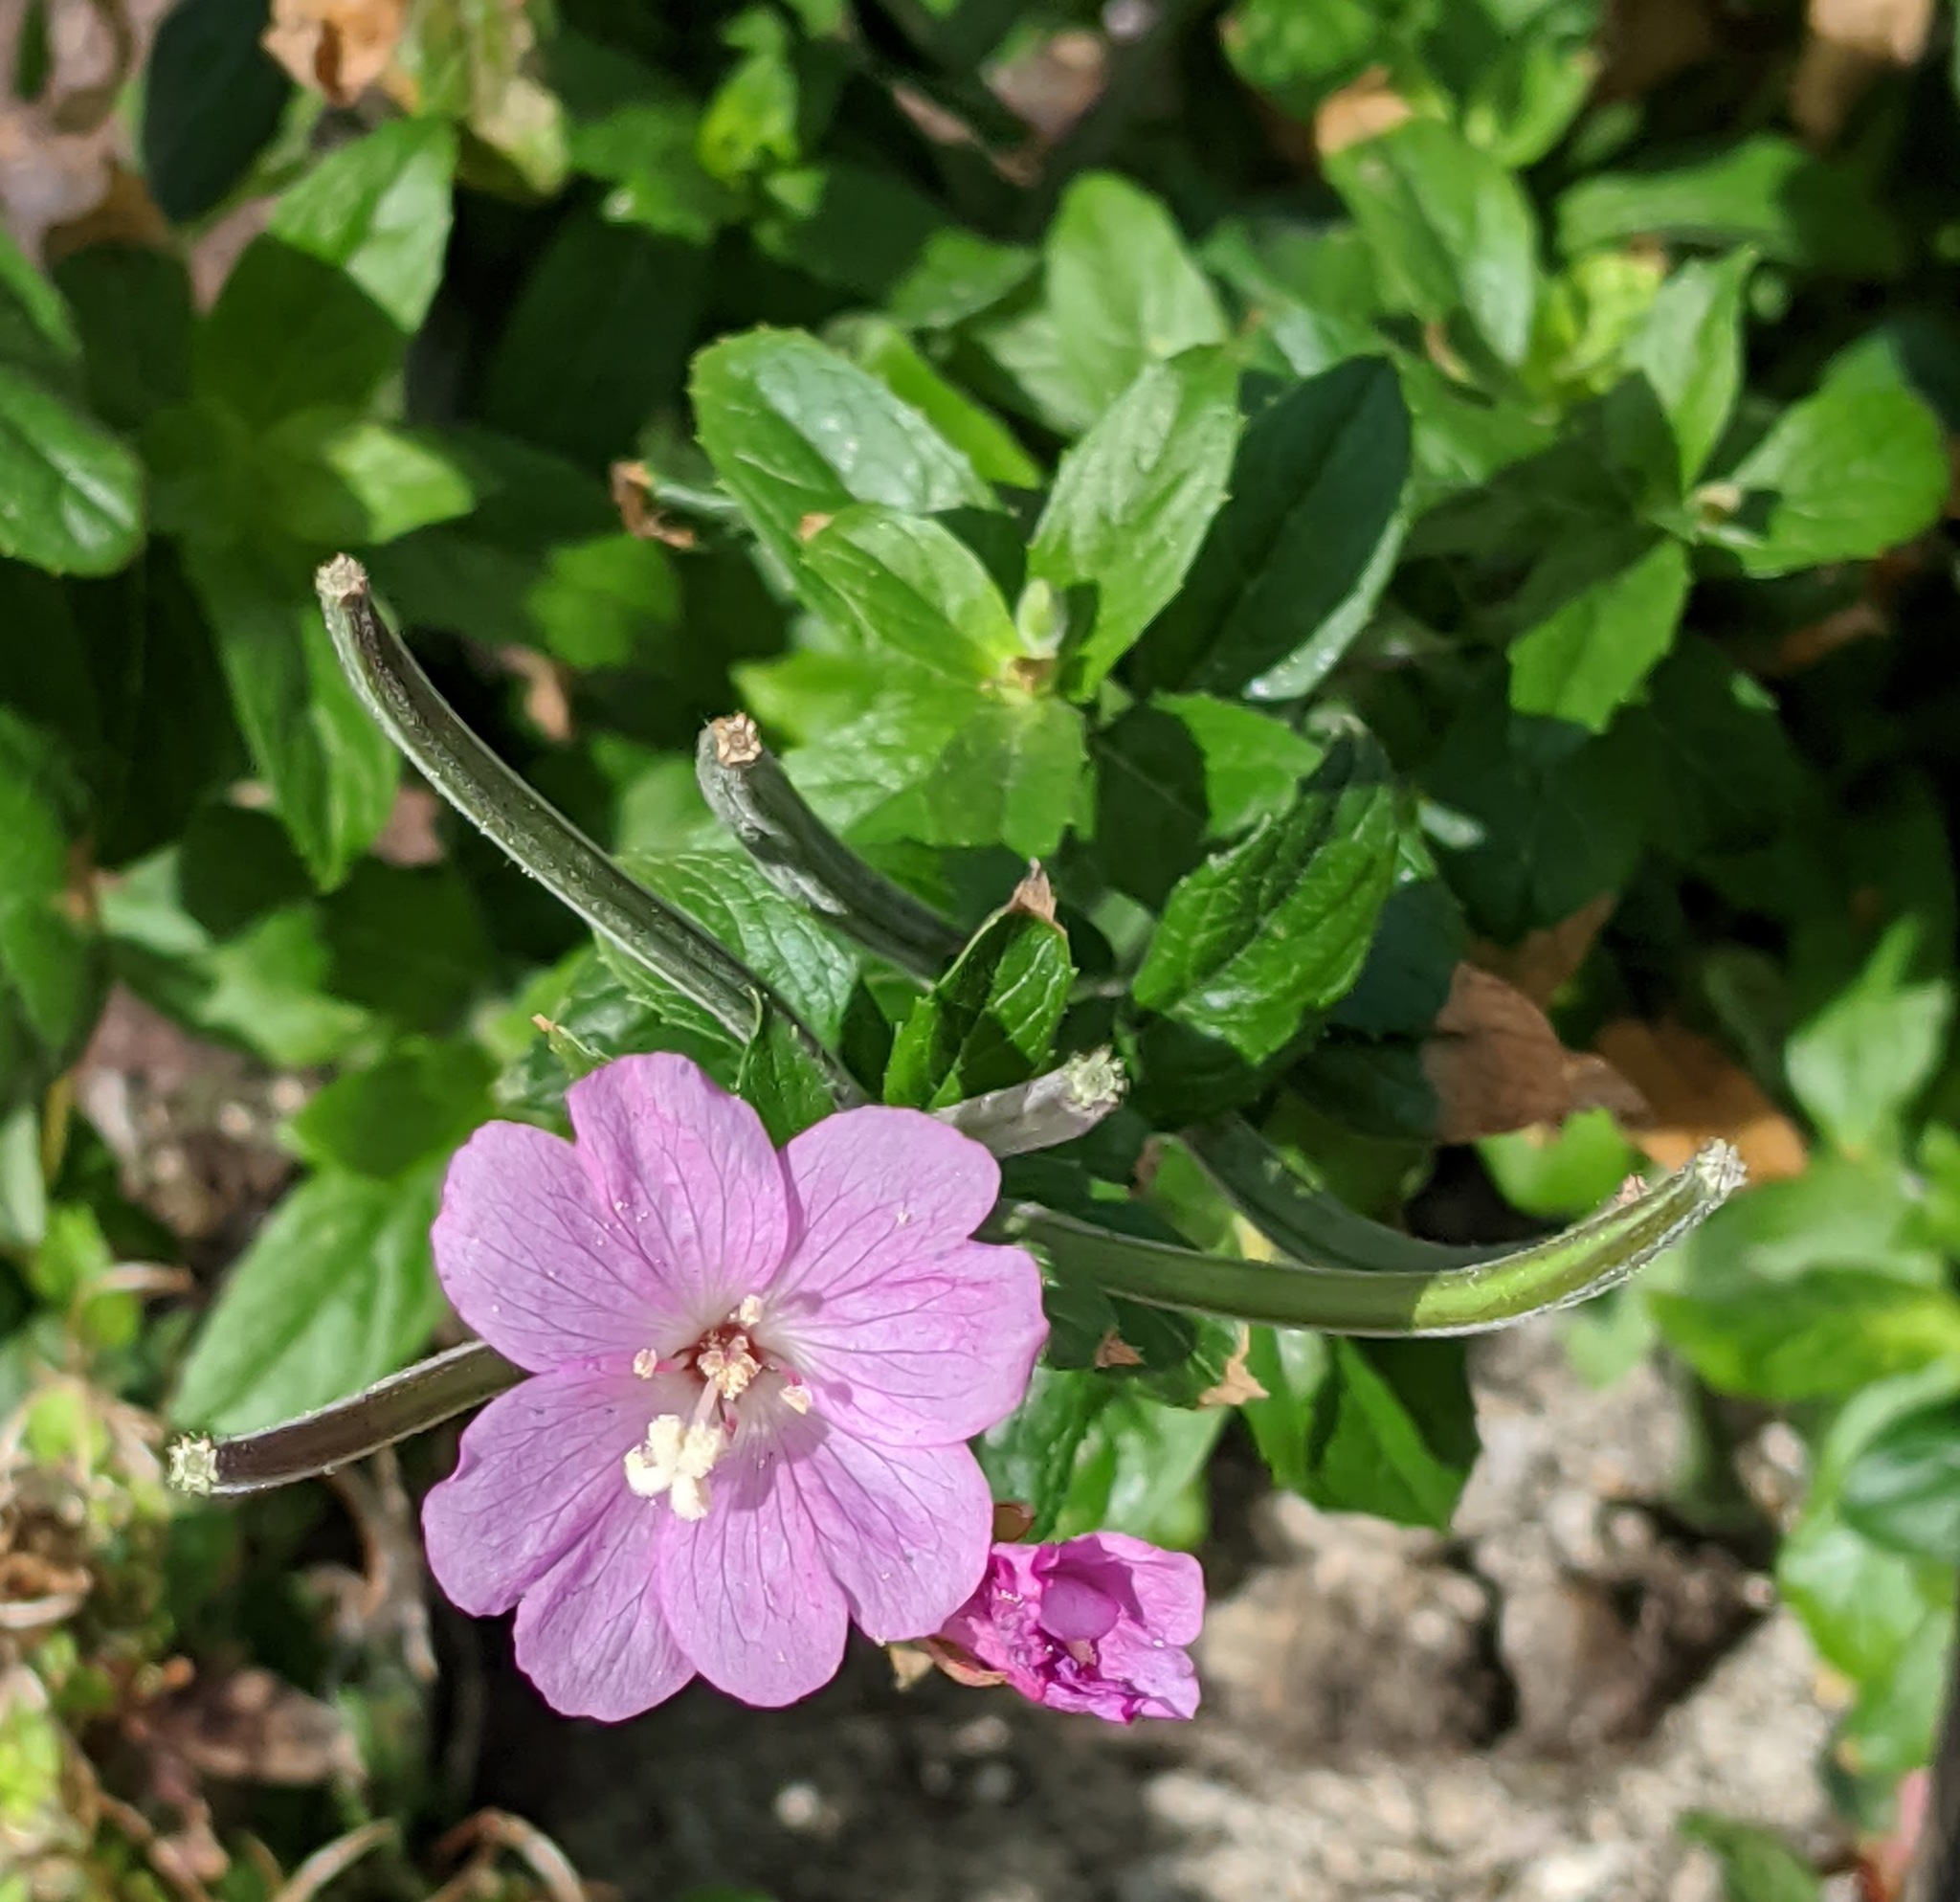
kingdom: Plantae
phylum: Tracheophyta
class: Magnoliopsida
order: Myrtales
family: Onagraceae
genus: Epilobium
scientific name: Epilobium hirsutum
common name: Great willowherb
